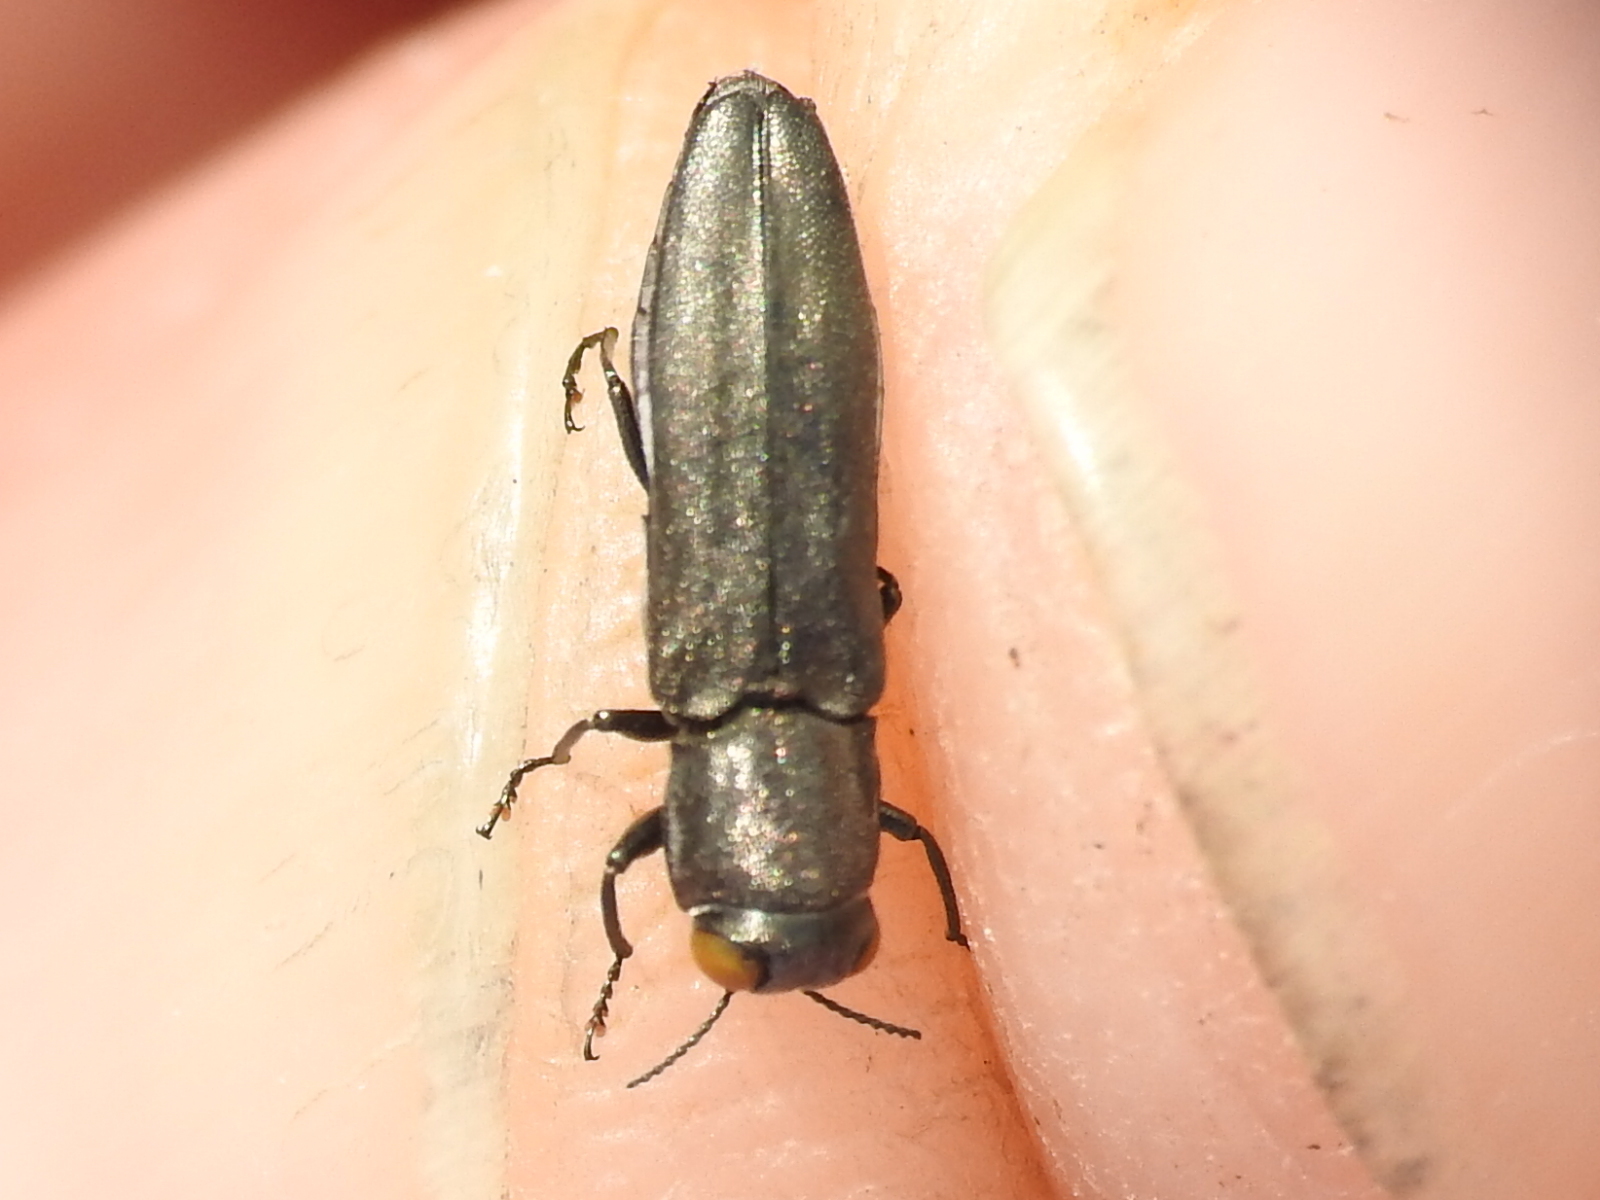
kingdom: Animalia
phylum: Arthropoda
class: Insecta
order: Coleoptera
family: Buprestidae
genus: Agrilus
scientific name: Agrilus muticus
